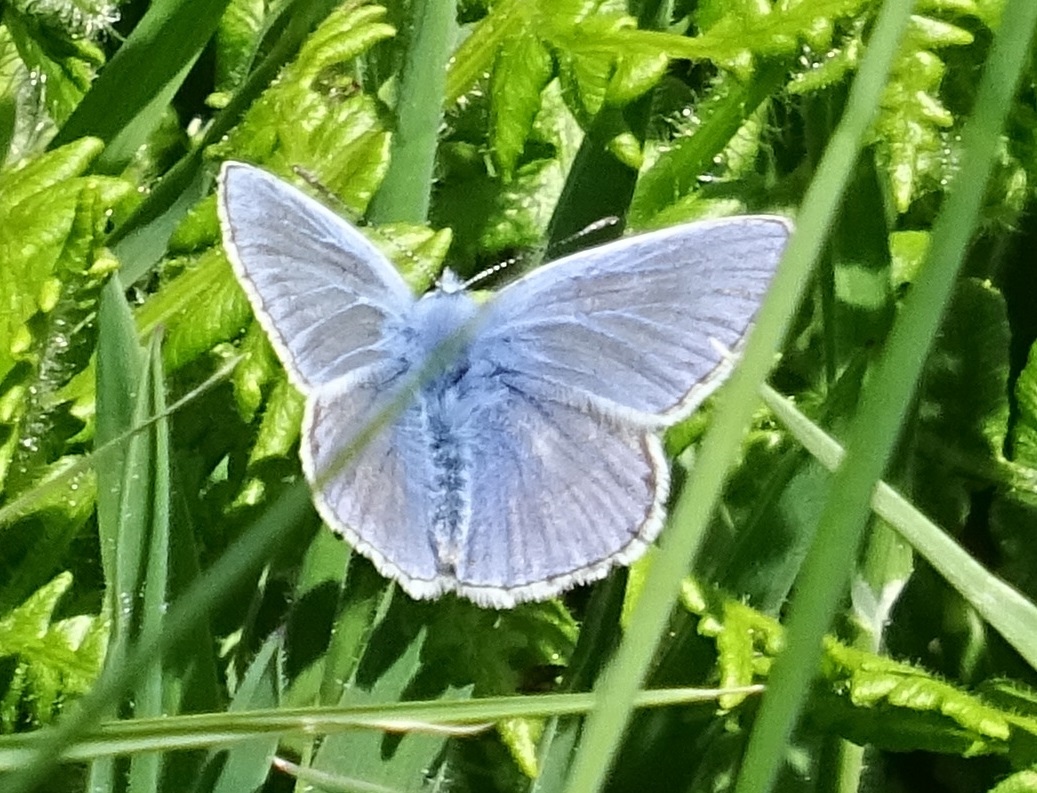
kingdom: Animalia
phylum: Arthropoda
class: Insecta
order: Lepidoptera
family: Lycaenidae
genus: Polyommatus
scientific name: Polyommatus icarus
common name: Common blue
